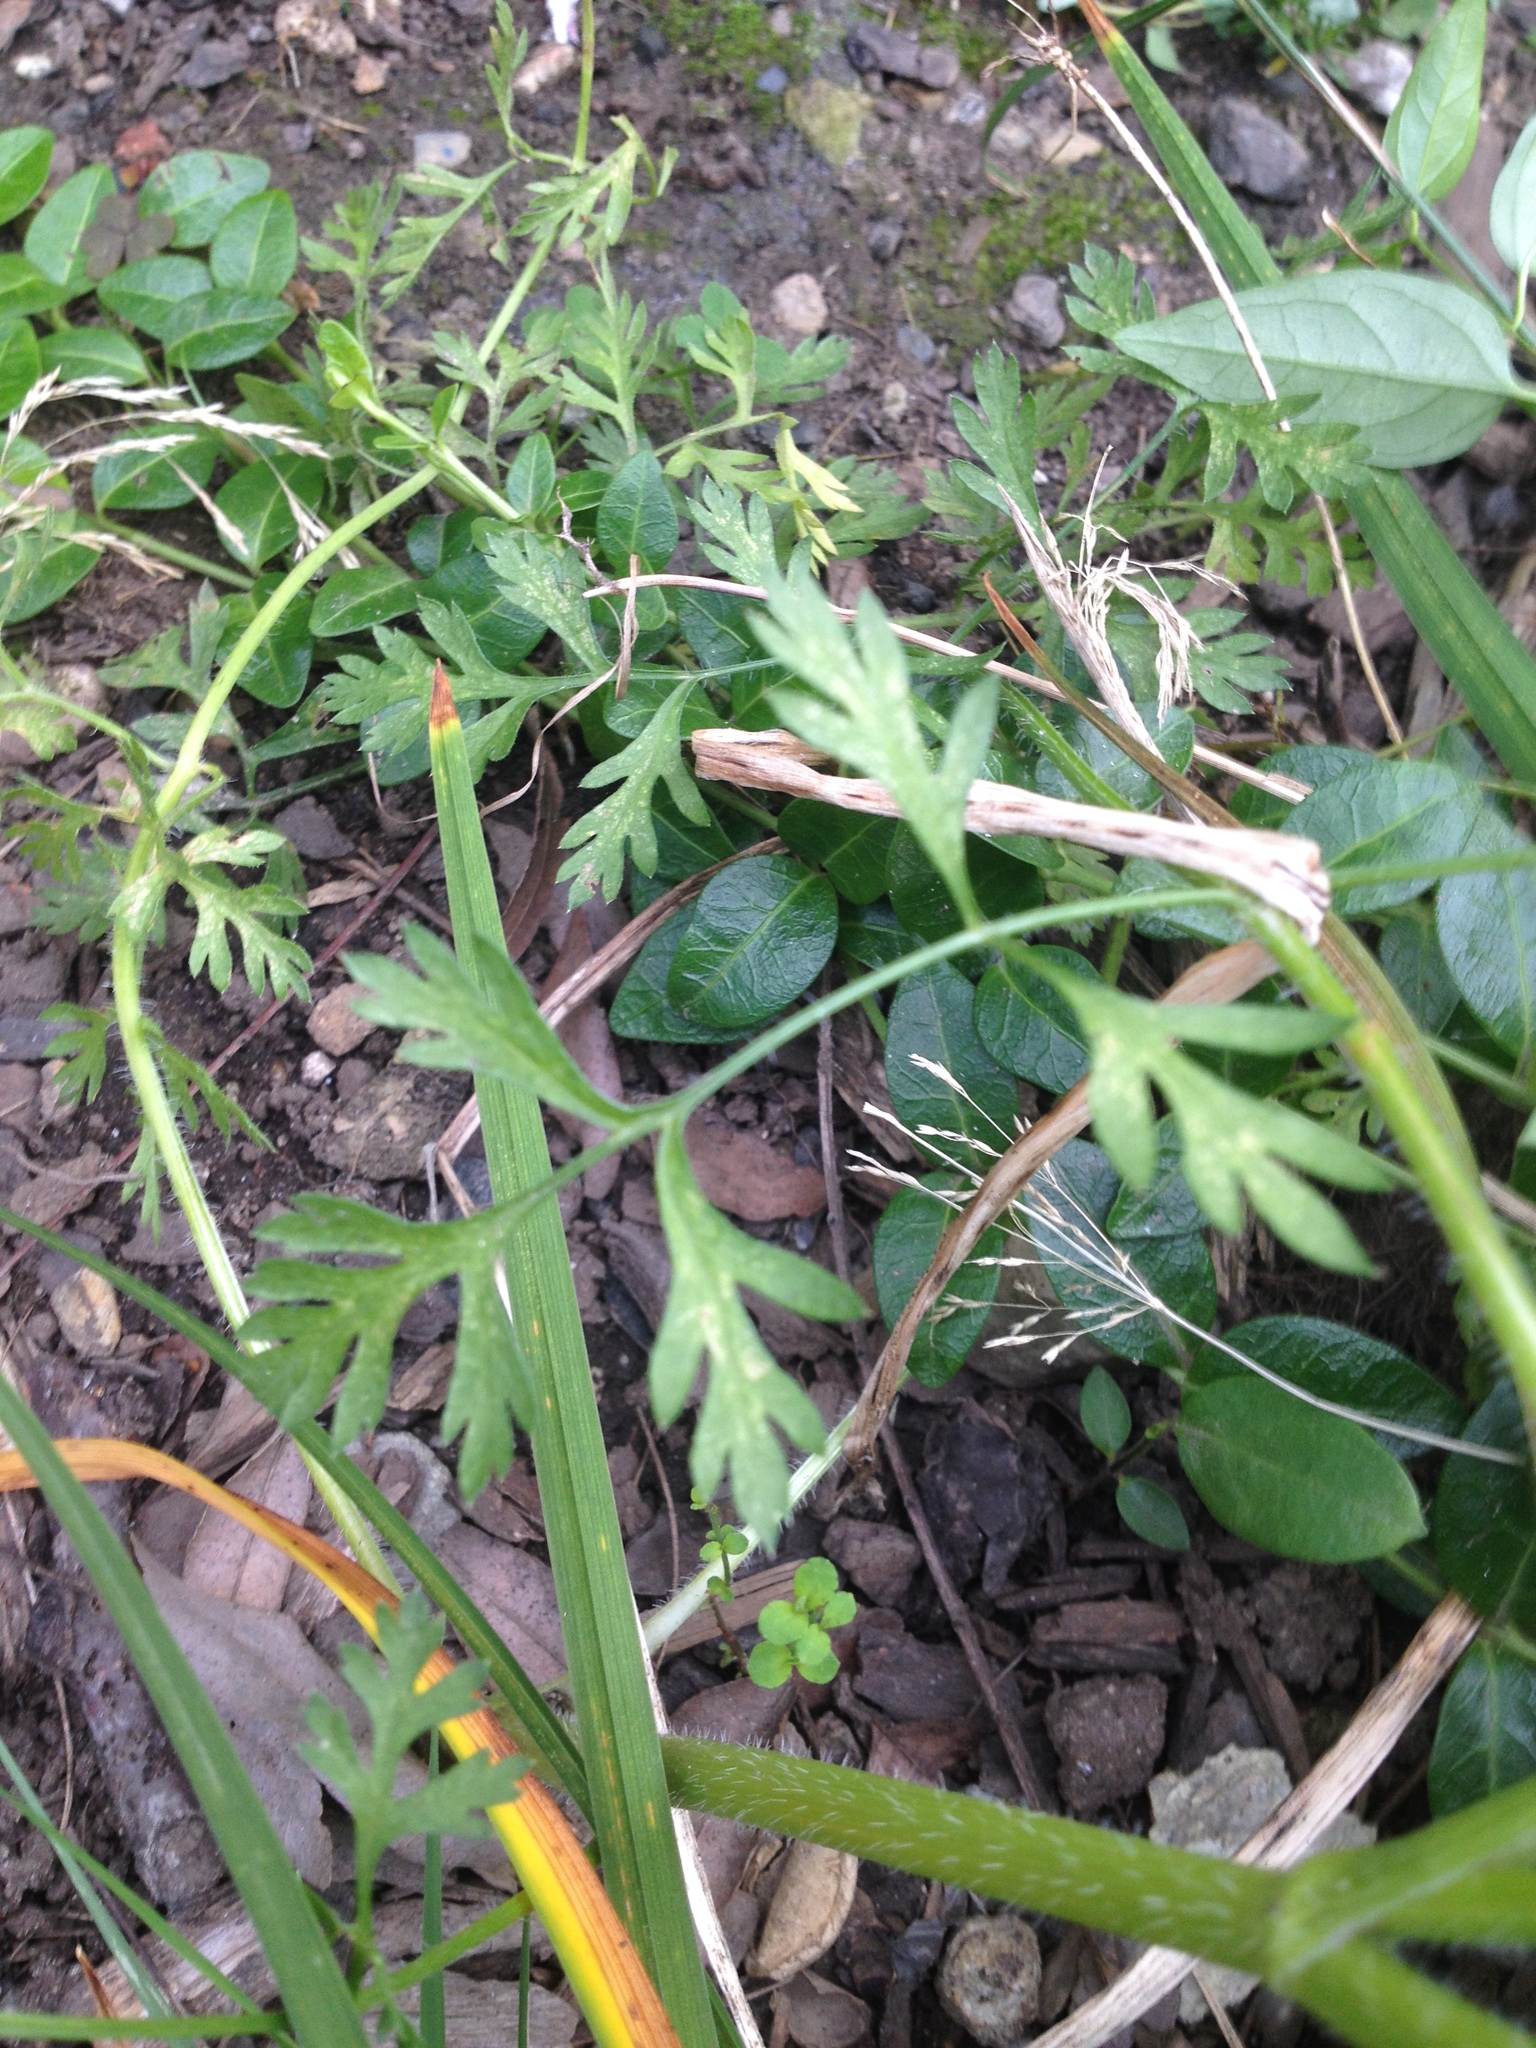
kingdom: Plantae
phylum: Tracheophyta
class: Magnoliopsida
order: Apiales
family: Apiaceae
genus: Daucus
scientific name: Daucus carota
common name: Wild carrot
